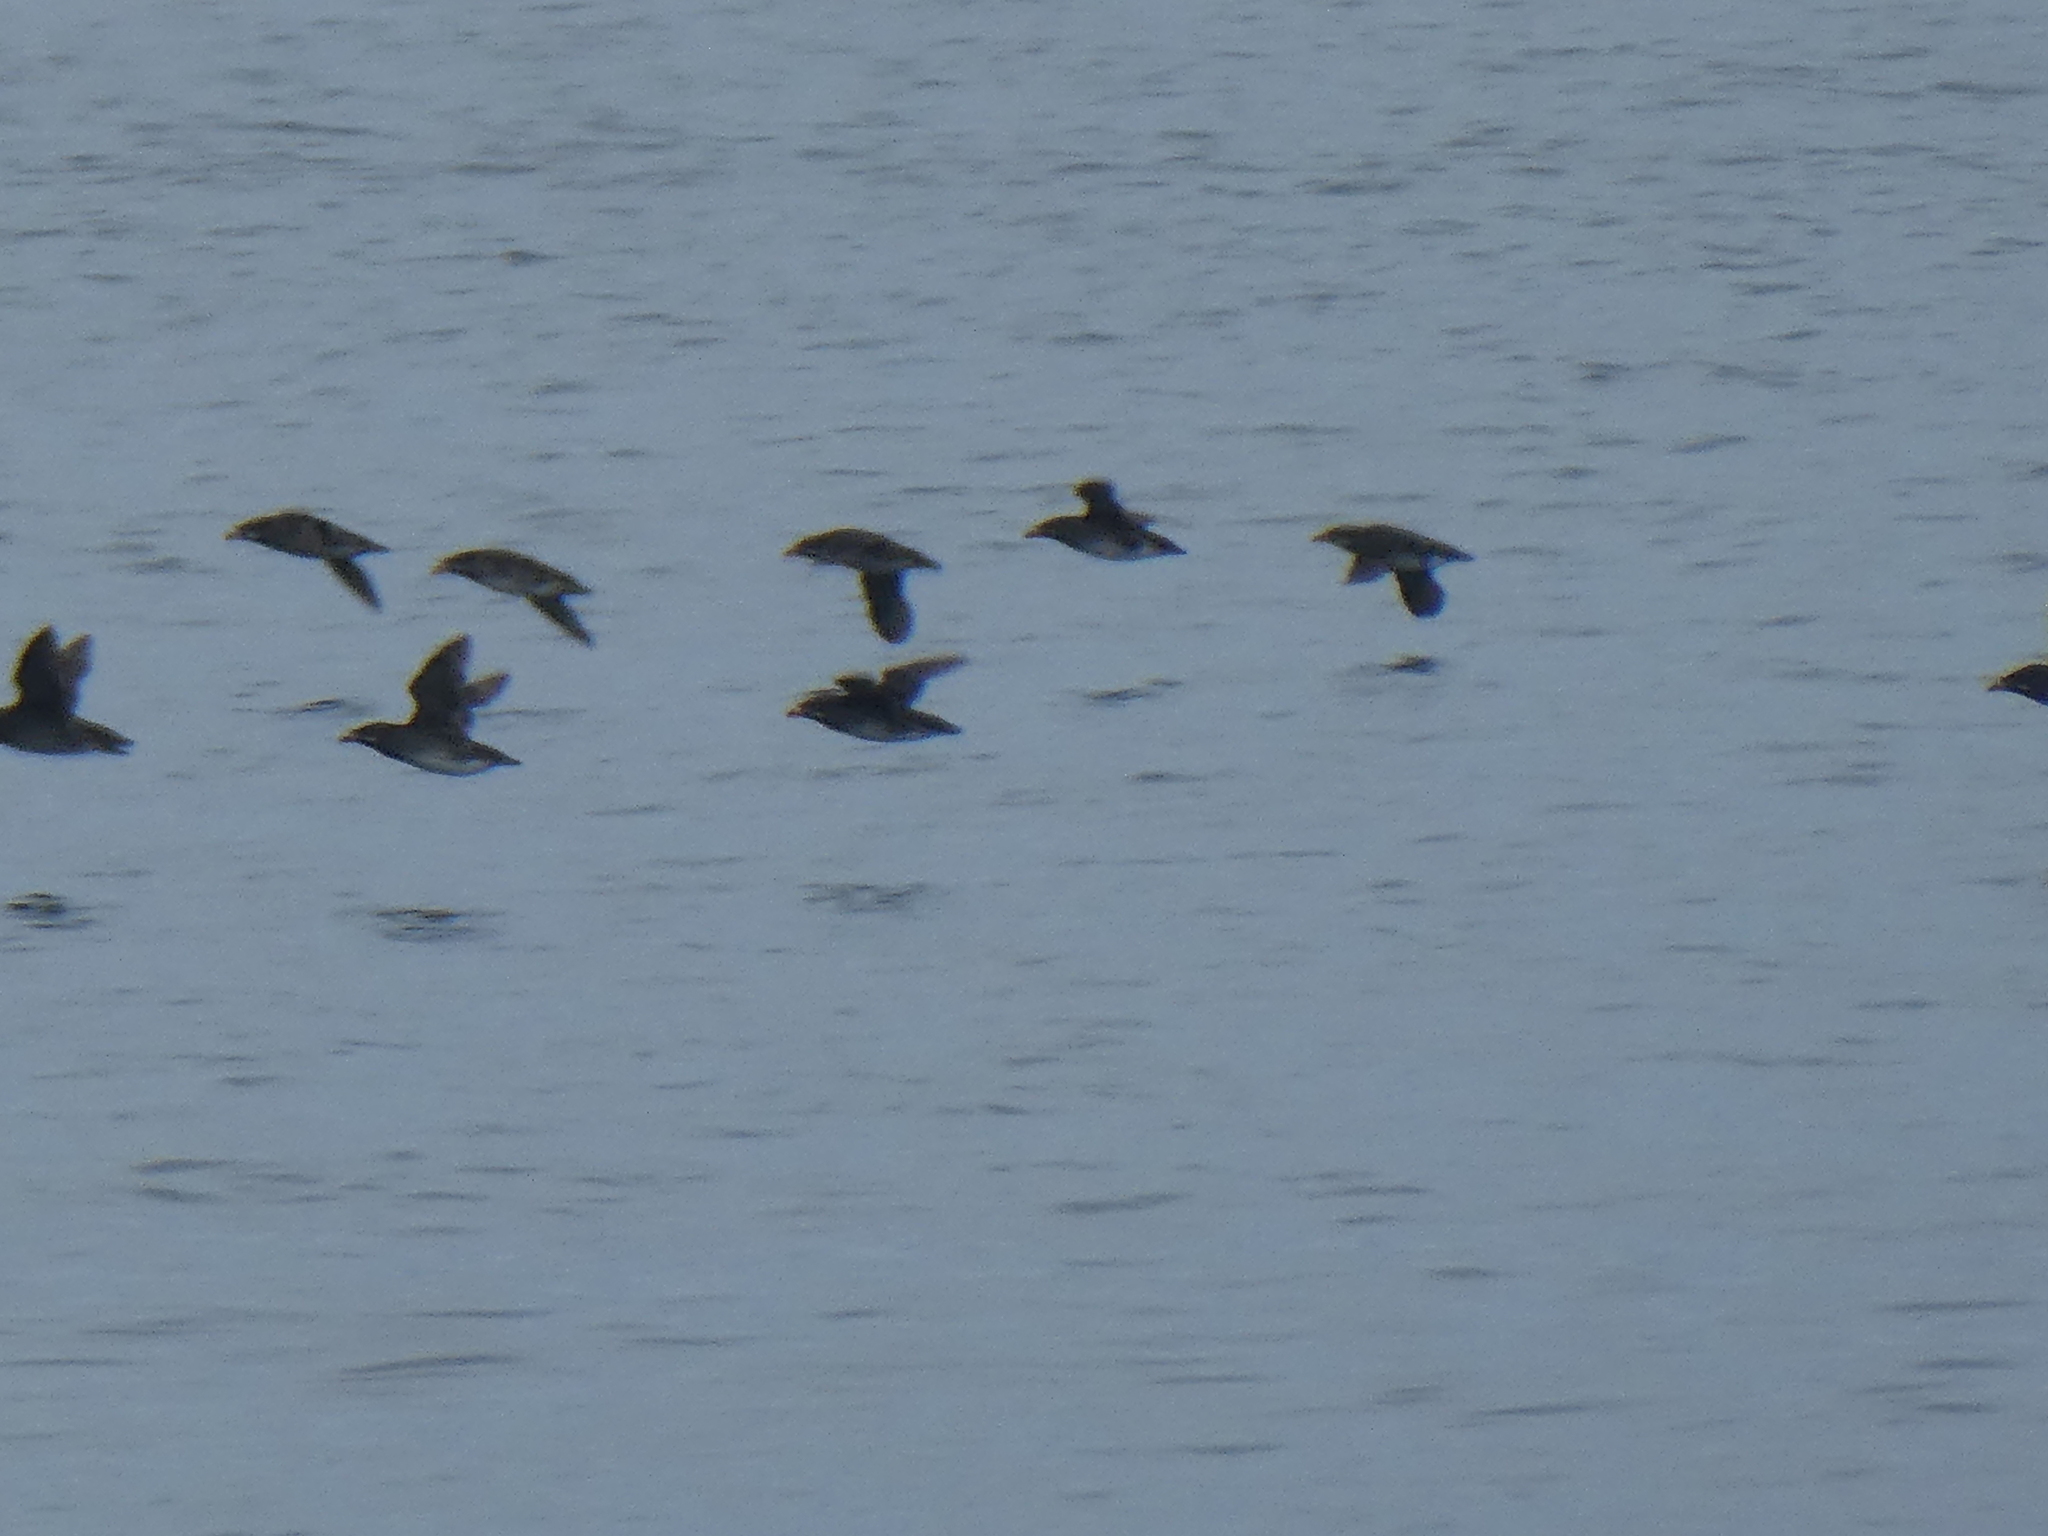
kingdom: Animalia
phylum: Chordata
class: Aves
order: Charadriiformes
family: Alcidae
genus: Cerorhinca
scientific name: Cerorhinca monocerata
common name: Rhinoceros auklet
